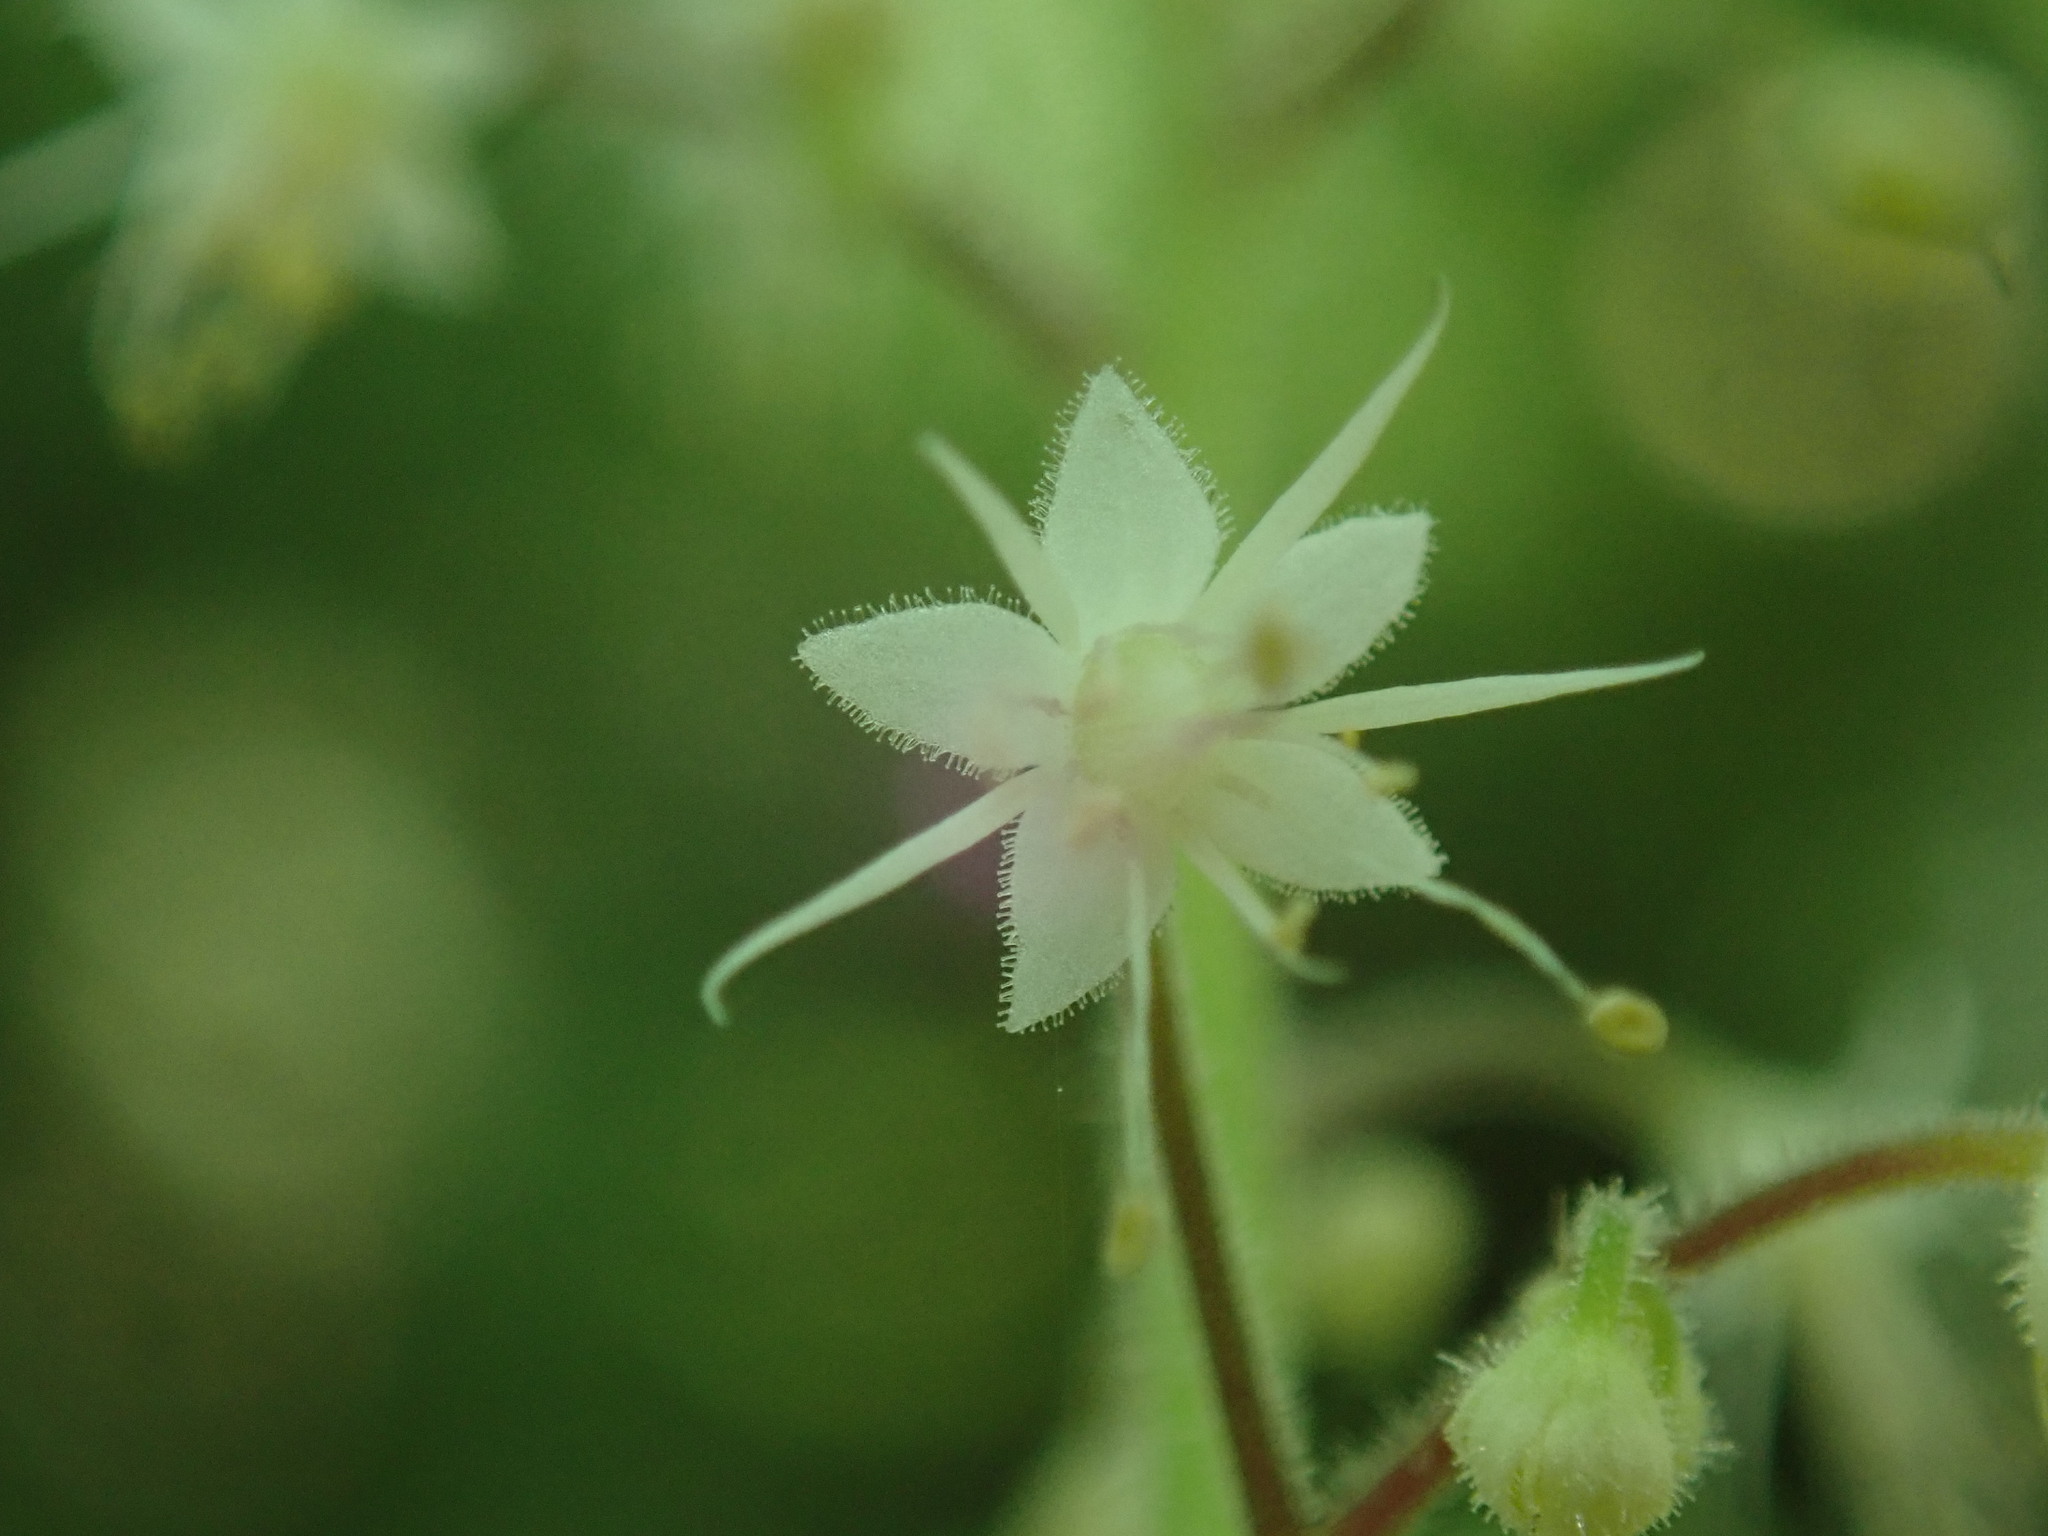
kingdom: Plantae
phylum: Tracheophyta
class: Magnoliopsida
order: Saxifragales
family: Saxifragaceae
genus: Tiarella
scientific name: Tiarella trifoliata
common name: Sugar-scoop
